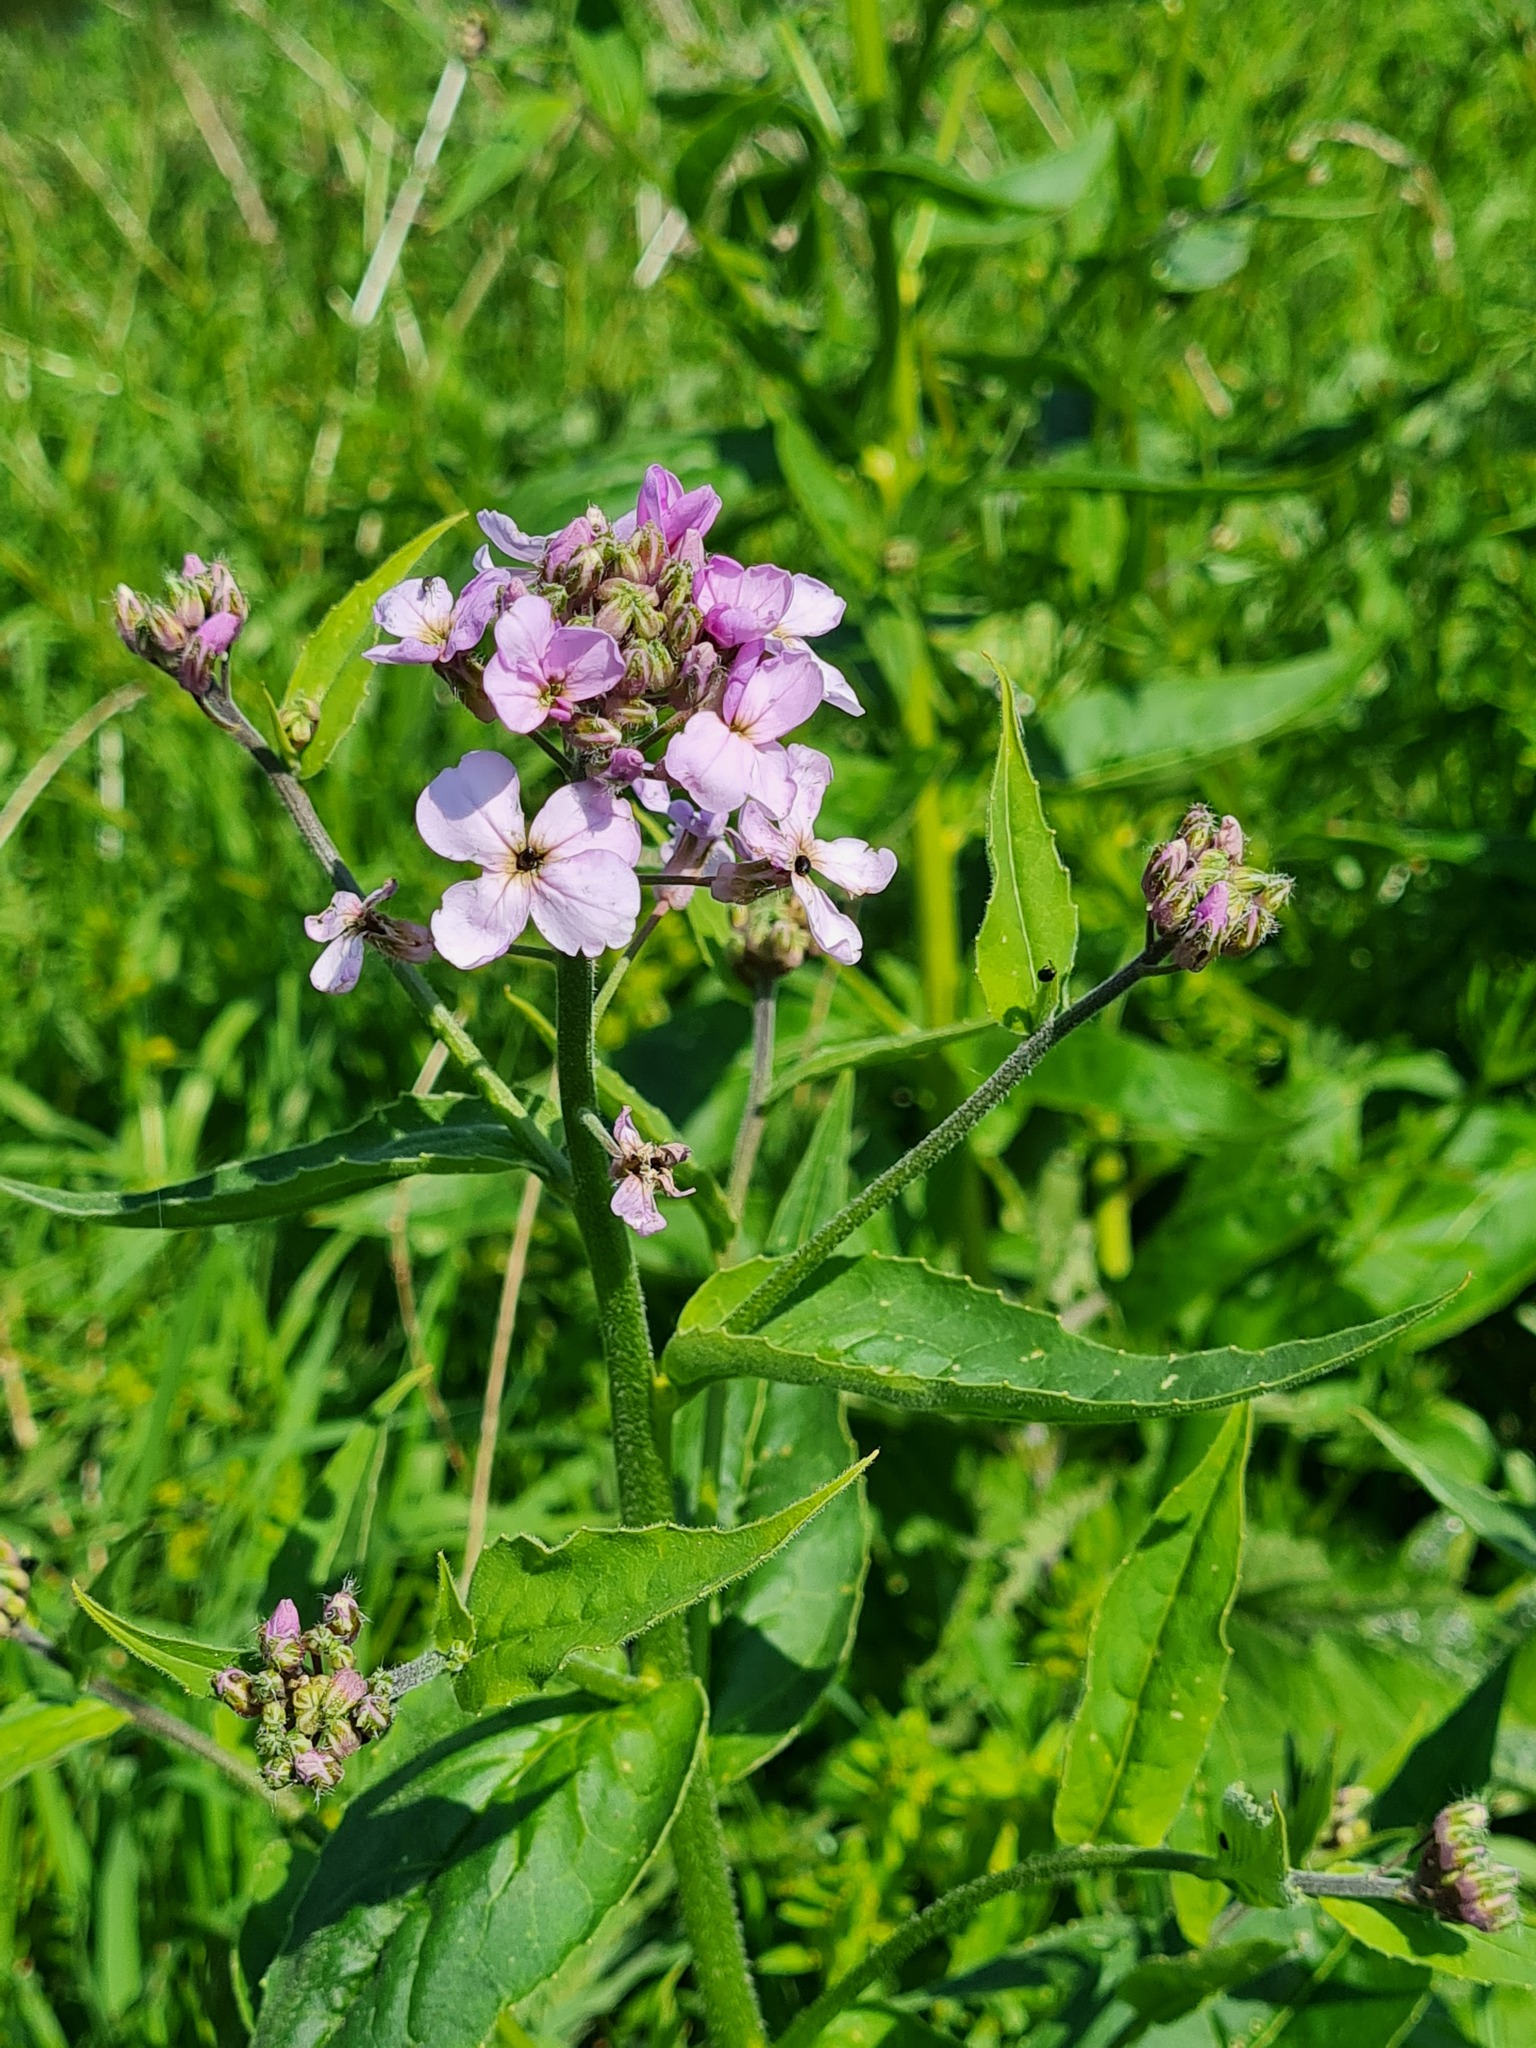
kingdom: Plantae
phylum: Tracheophyta
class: Magnoliopsida
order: Brassicales
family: Brassicaceae
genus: Hesperis
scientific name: Hesperis matronalis
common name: Dame's-violet
